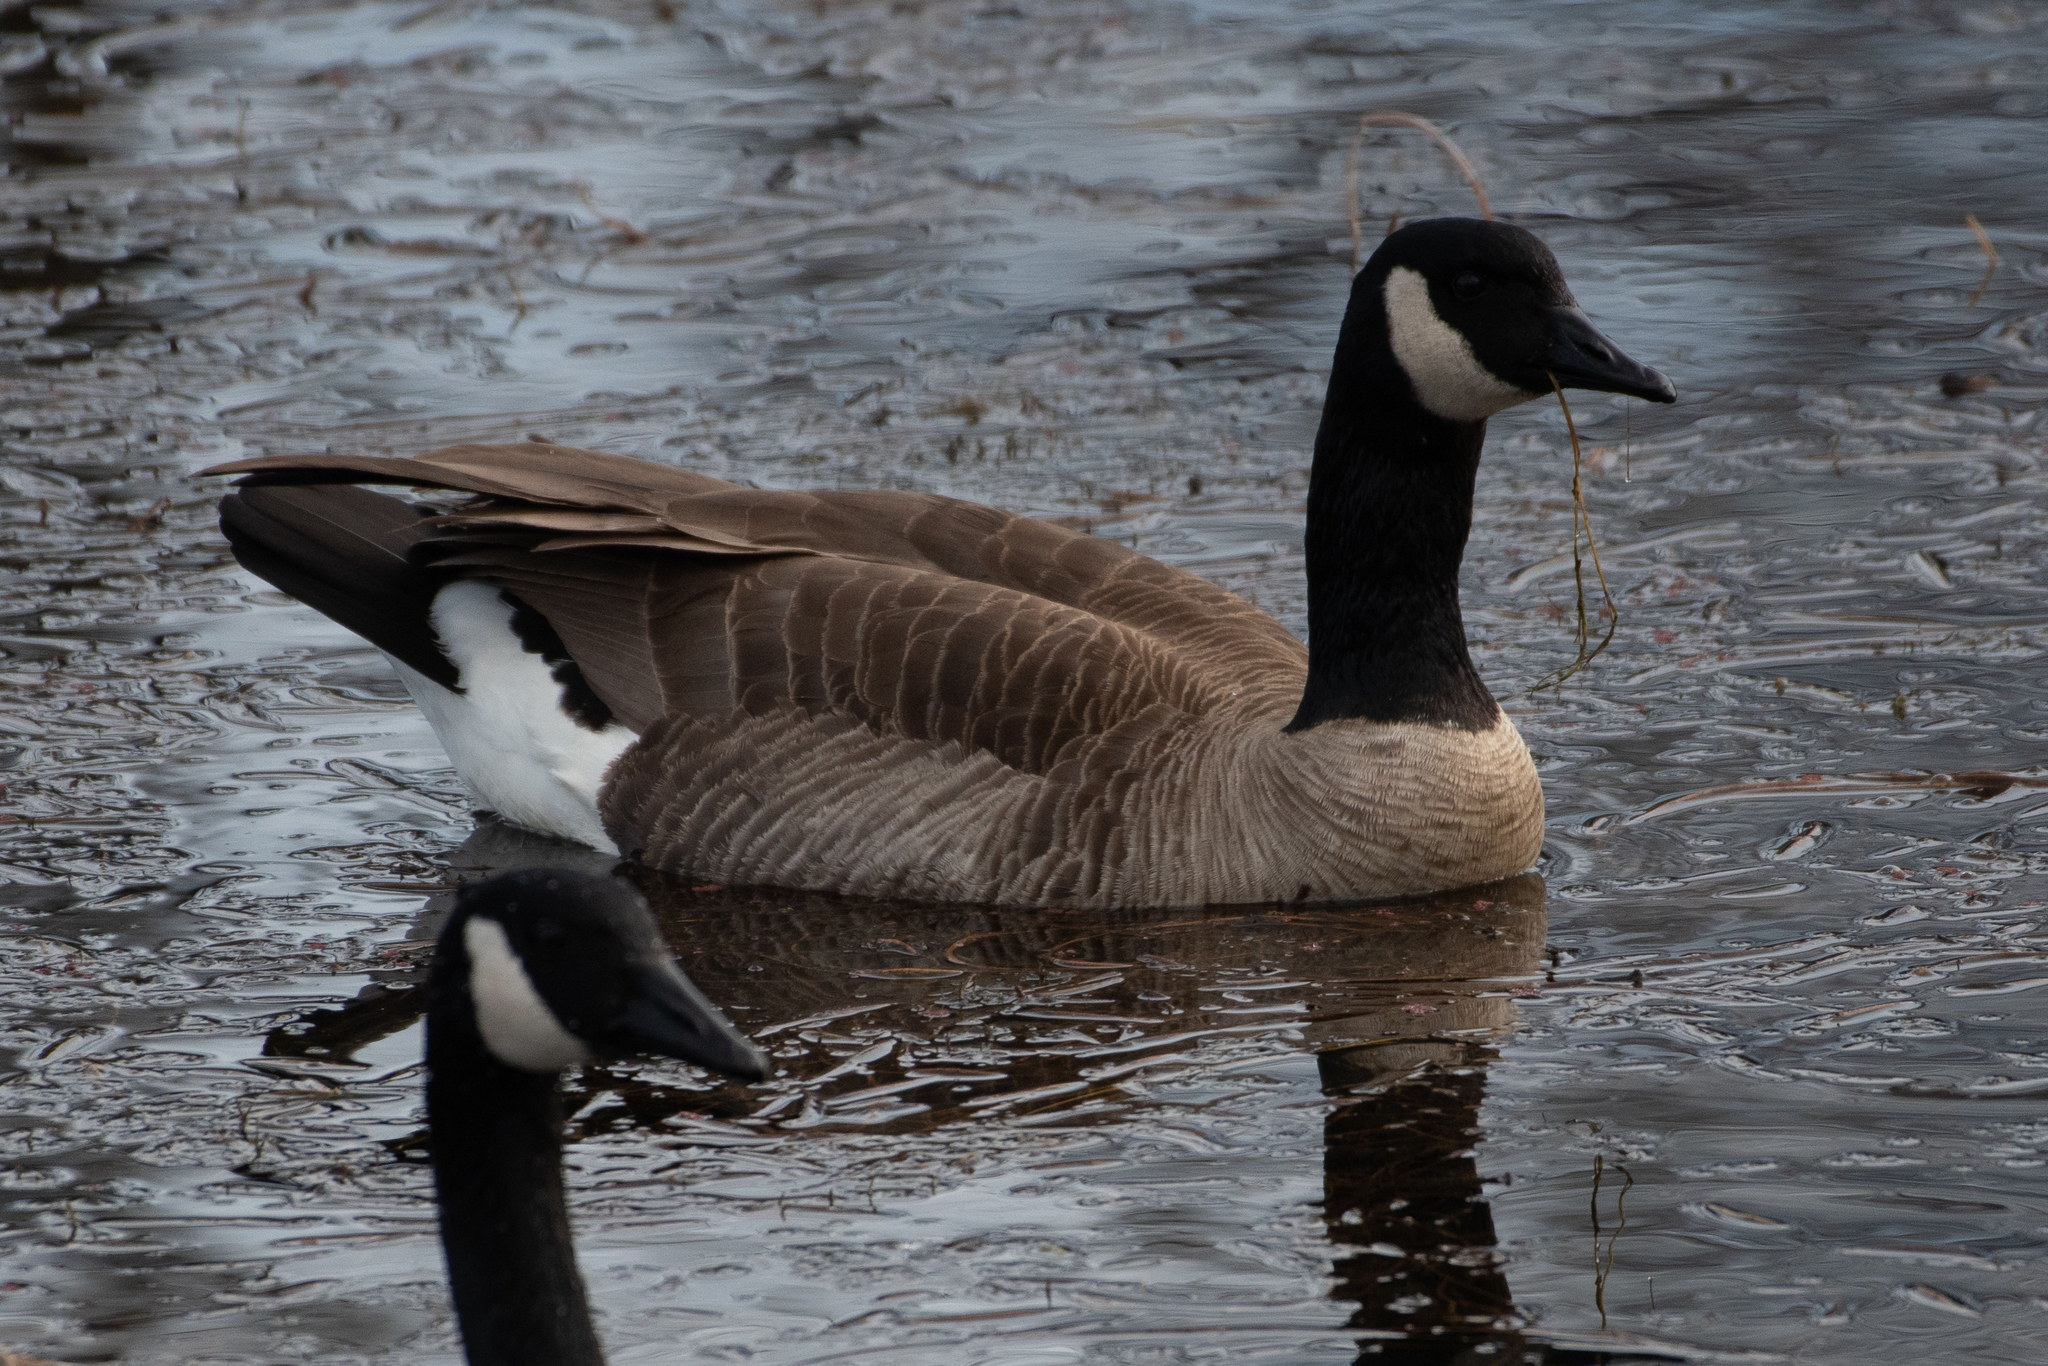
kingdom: Animalia
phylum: Chordata
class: Aves
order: Anseriformes
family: Anatidae
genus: Branta
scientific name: Branta canadensis
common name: Canada goose
